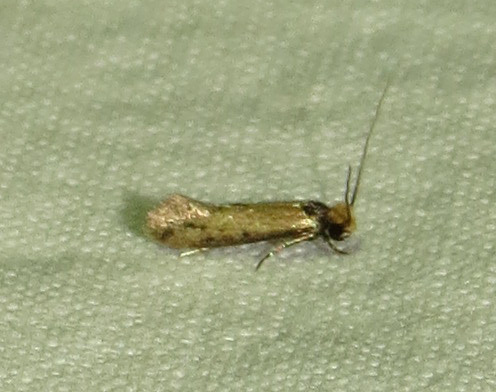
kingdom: Animalia
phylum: Arthropoda
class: Insecta
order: Lepidoptera
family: Meessiidae
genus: Homostinea
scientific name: Homostinea curviliniella
